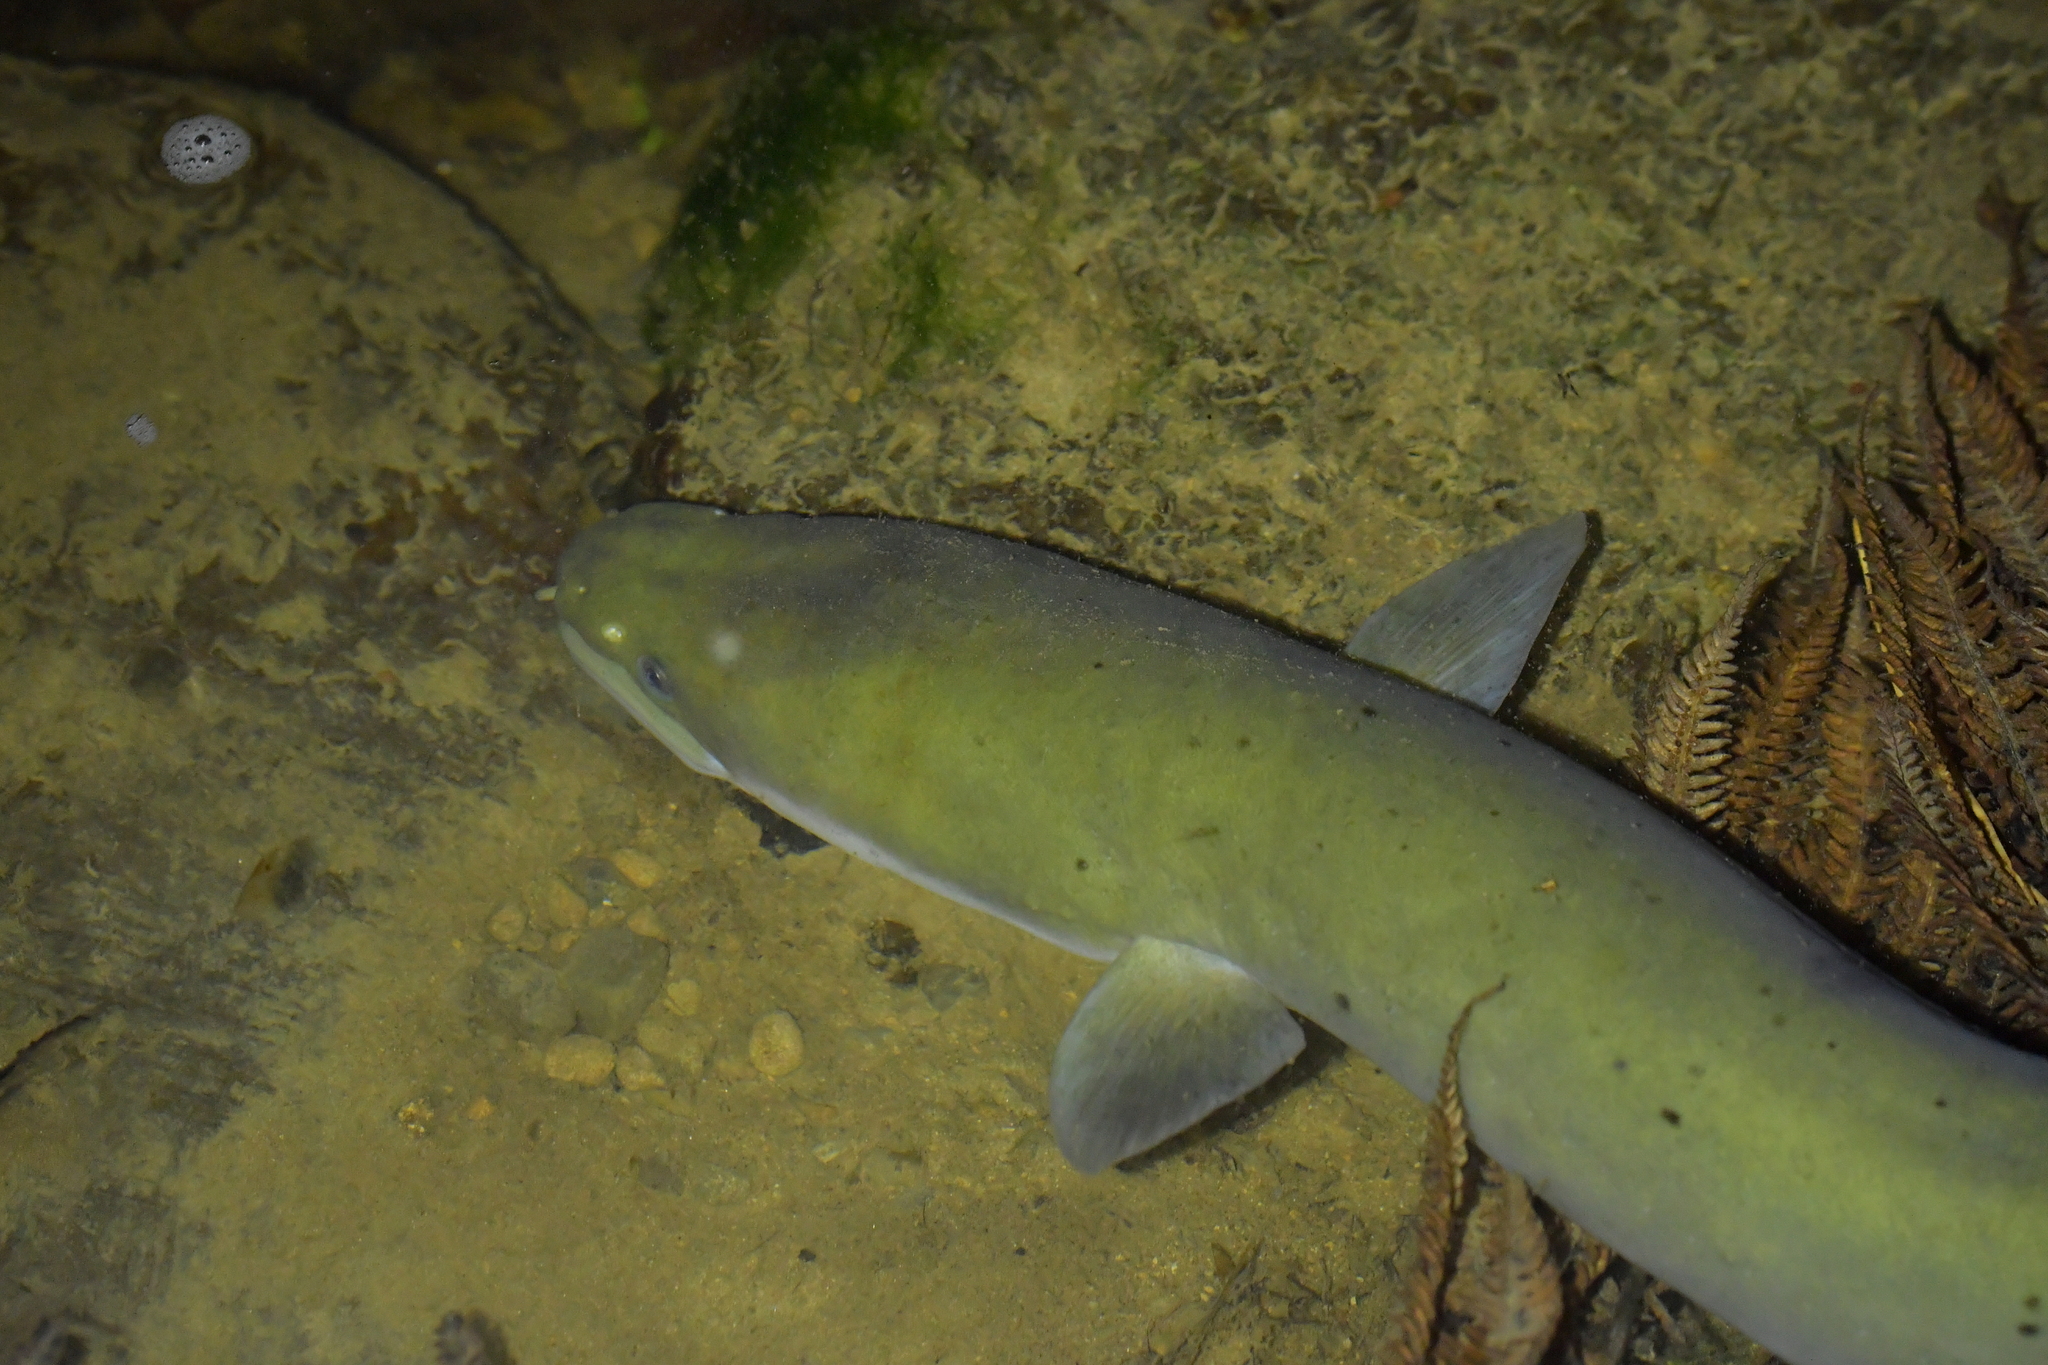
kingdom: Animalia
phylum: Chordata
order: Anguilliformes
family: Anguillidae
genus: Anguilla
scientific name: Anguilla dieffenbachii
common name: New zealand longfin eel
